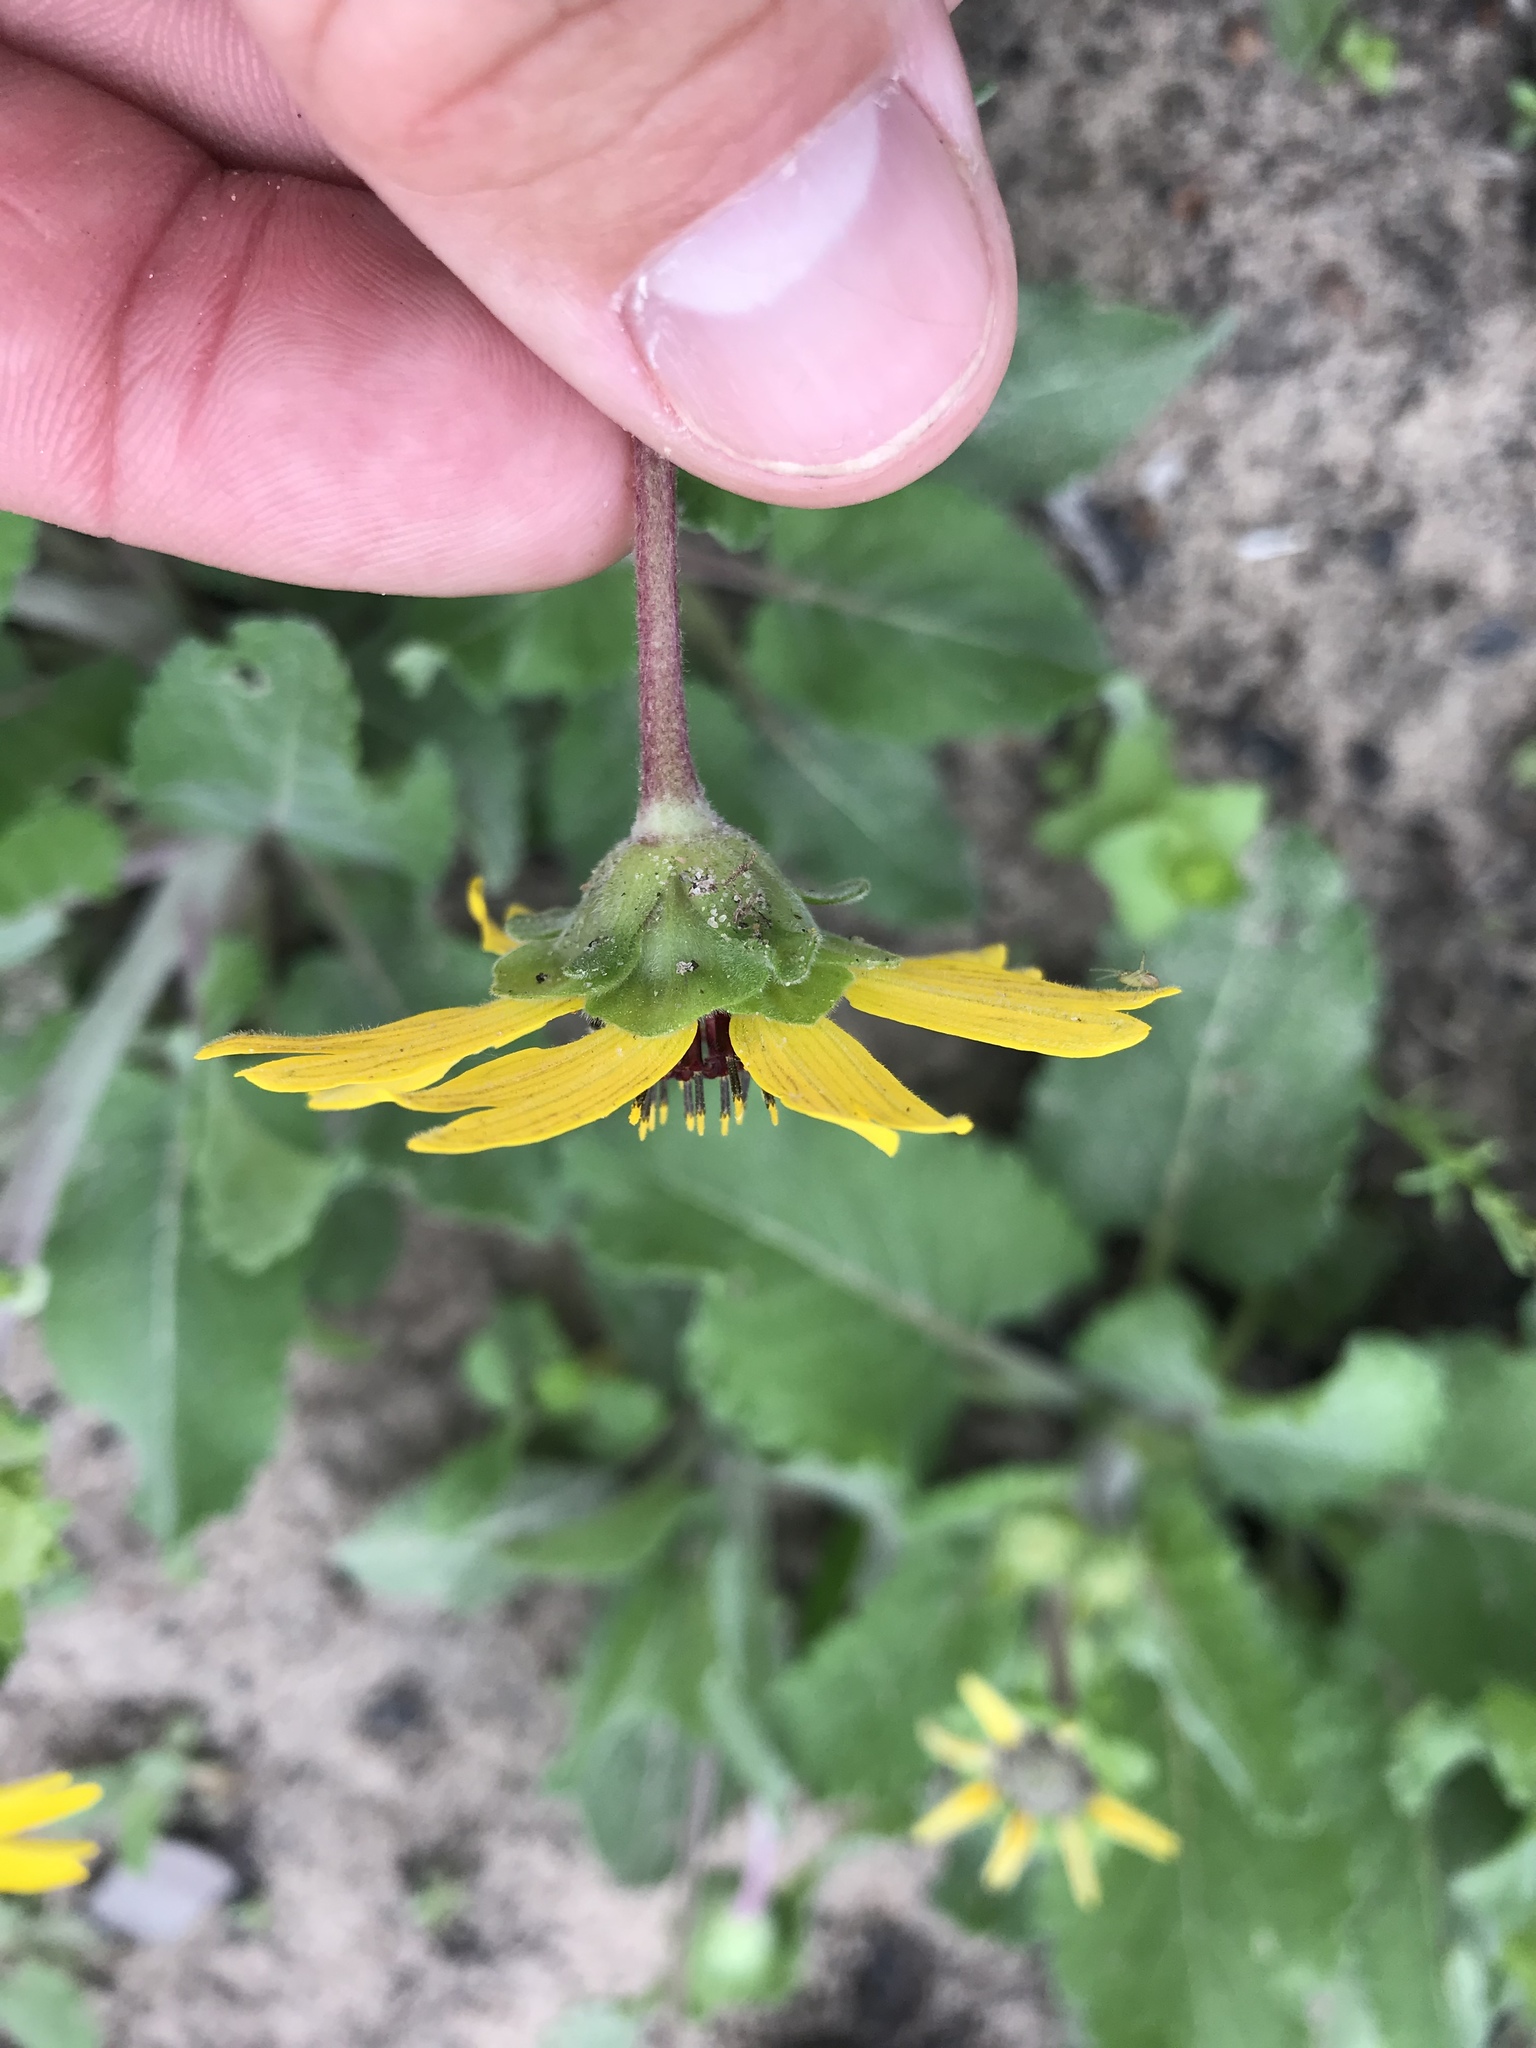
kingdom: Plantae
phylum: Tracheophyta
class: Magnoliopsida
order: Asterales
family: Asteraceae
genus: Berlandiera
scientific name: Berlandiera pumila
